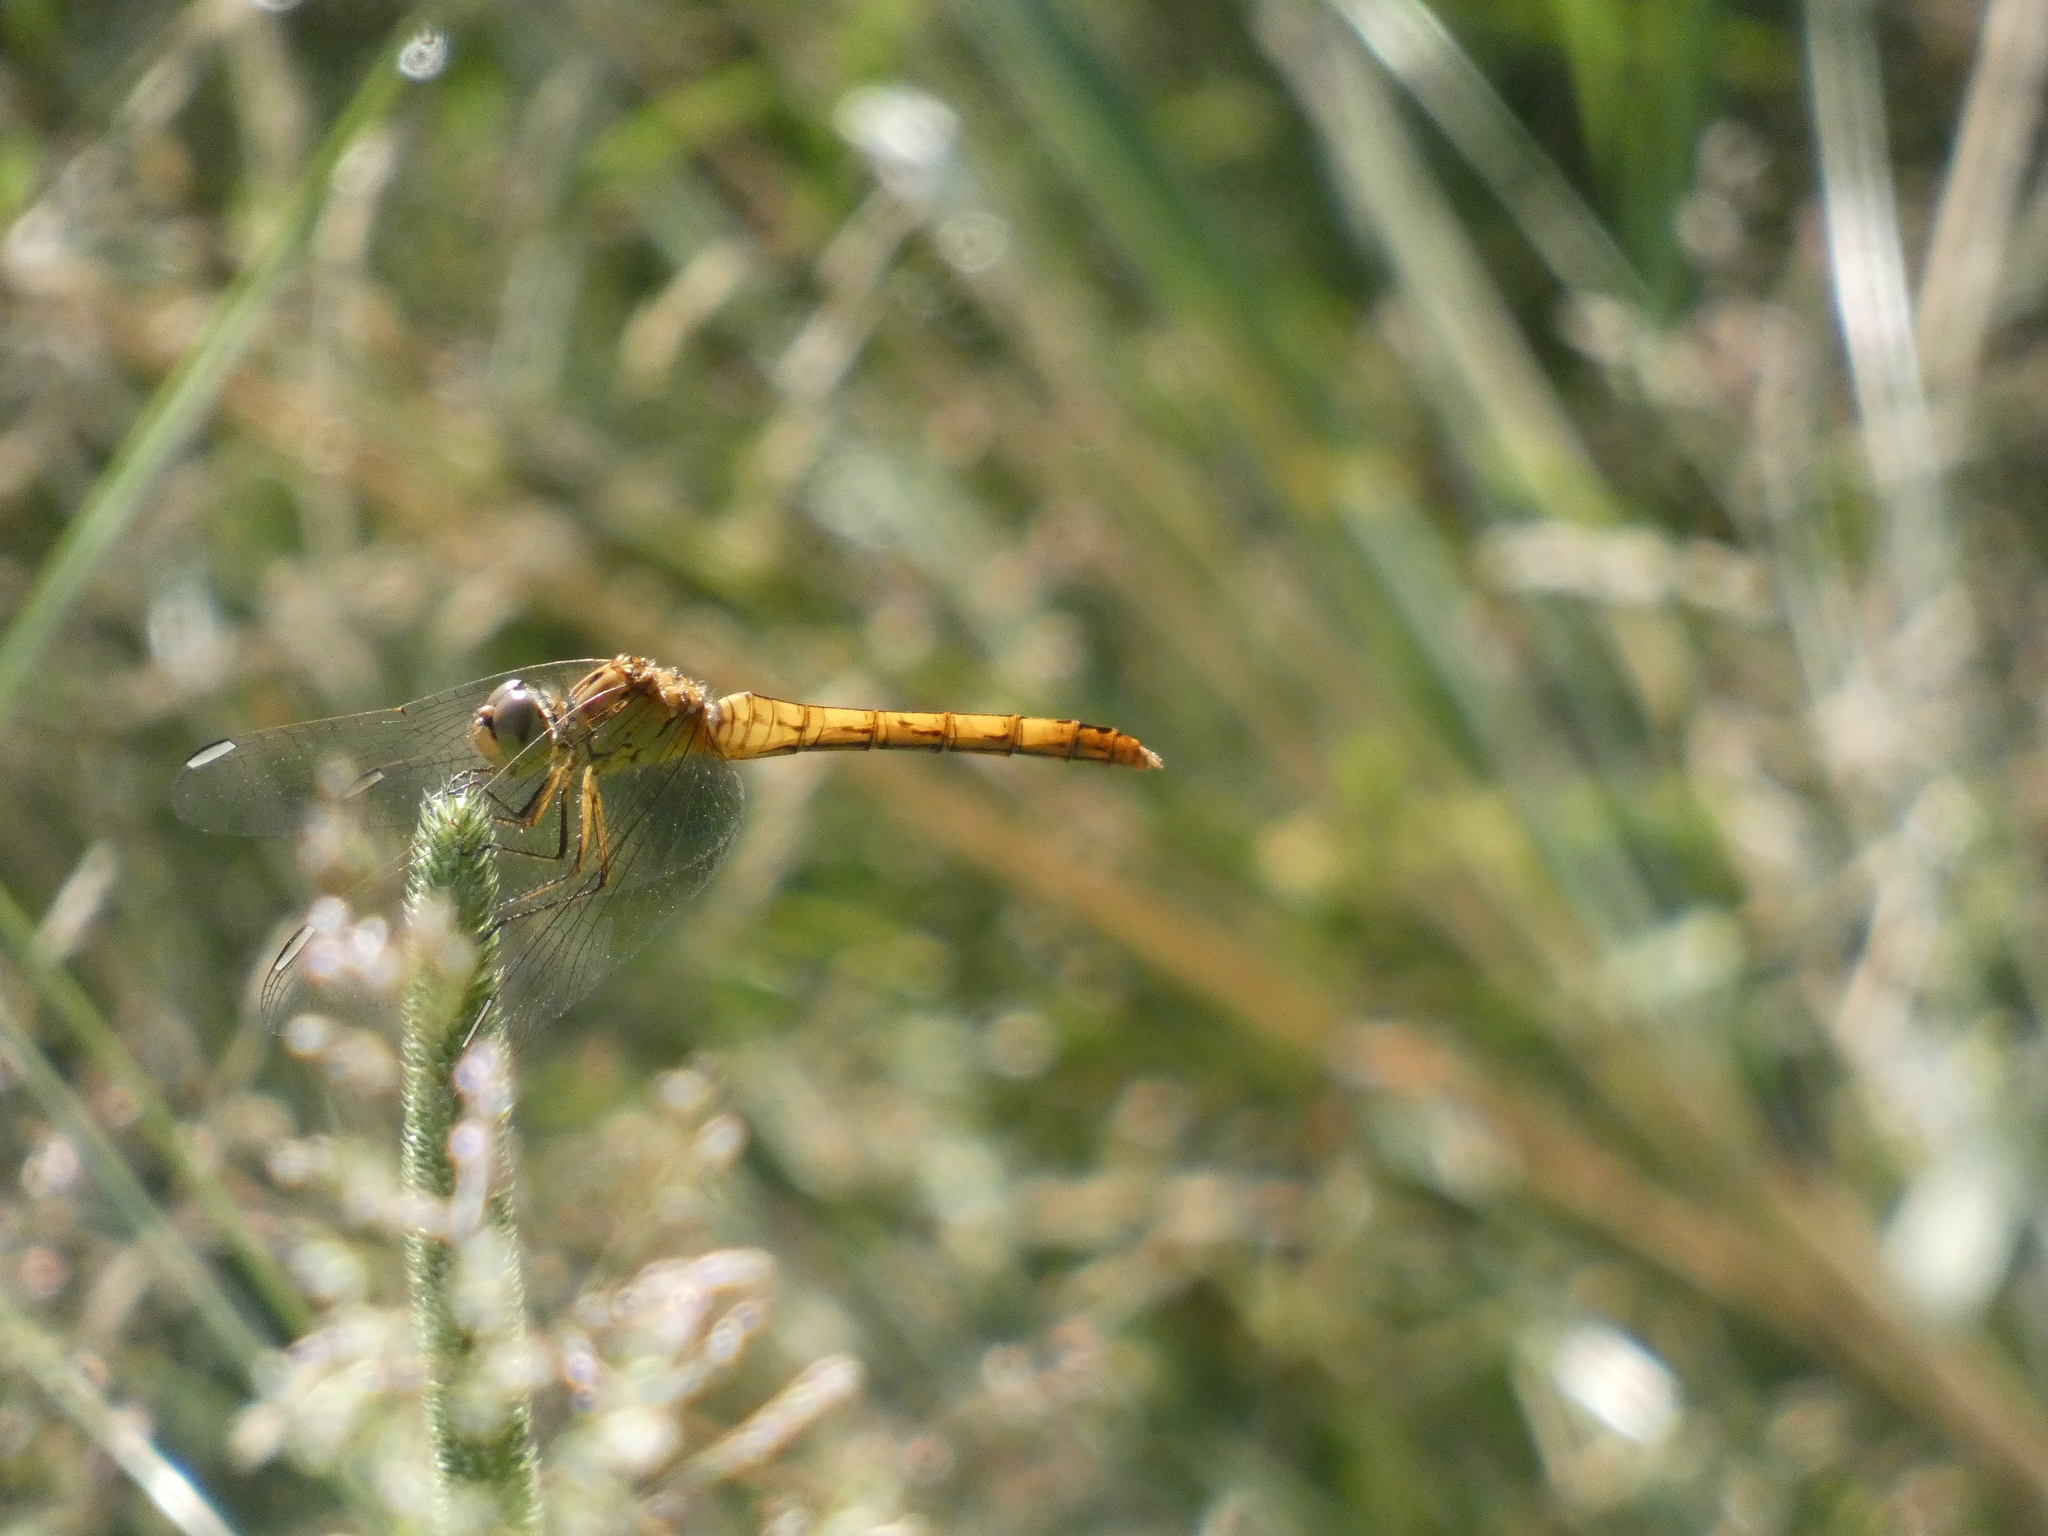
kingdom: Animalia
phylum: Arthropoda
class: Insecta
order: Odonata
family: Libellulidae
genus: Sympetrum
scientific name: Sympetrum meridionale
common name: Southern darter
